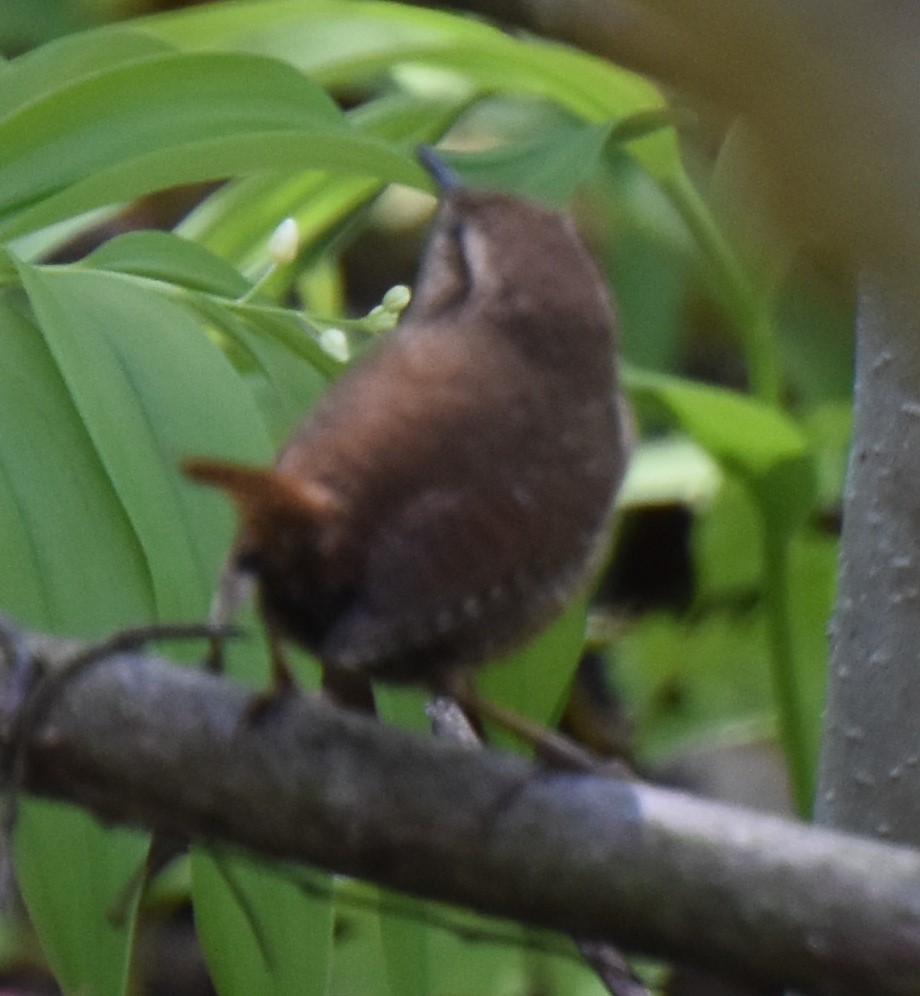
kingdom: Animalia
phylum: Chordata
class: Aves
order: Passeriformes
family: Troglodytidae
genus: Troglodytes
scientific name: Troglodytes hiemalis
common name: Winter wren
